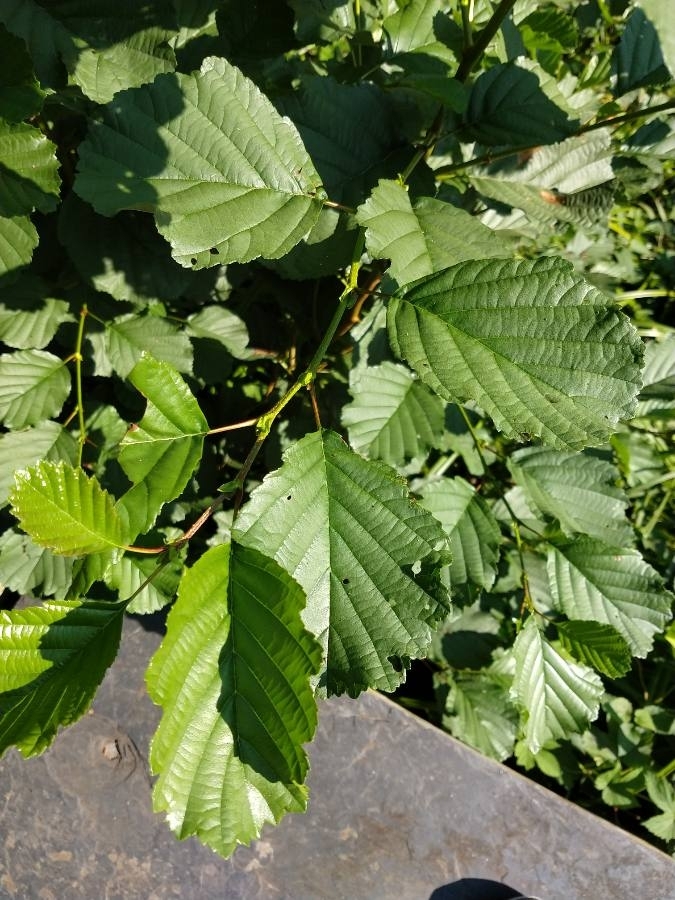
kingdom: Plantae
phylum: Tracheophyta
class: Magnoliopsida
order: Fagales
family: Betulaceae
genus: Alnus
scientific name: Alnus glutinosa
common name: Black alder
